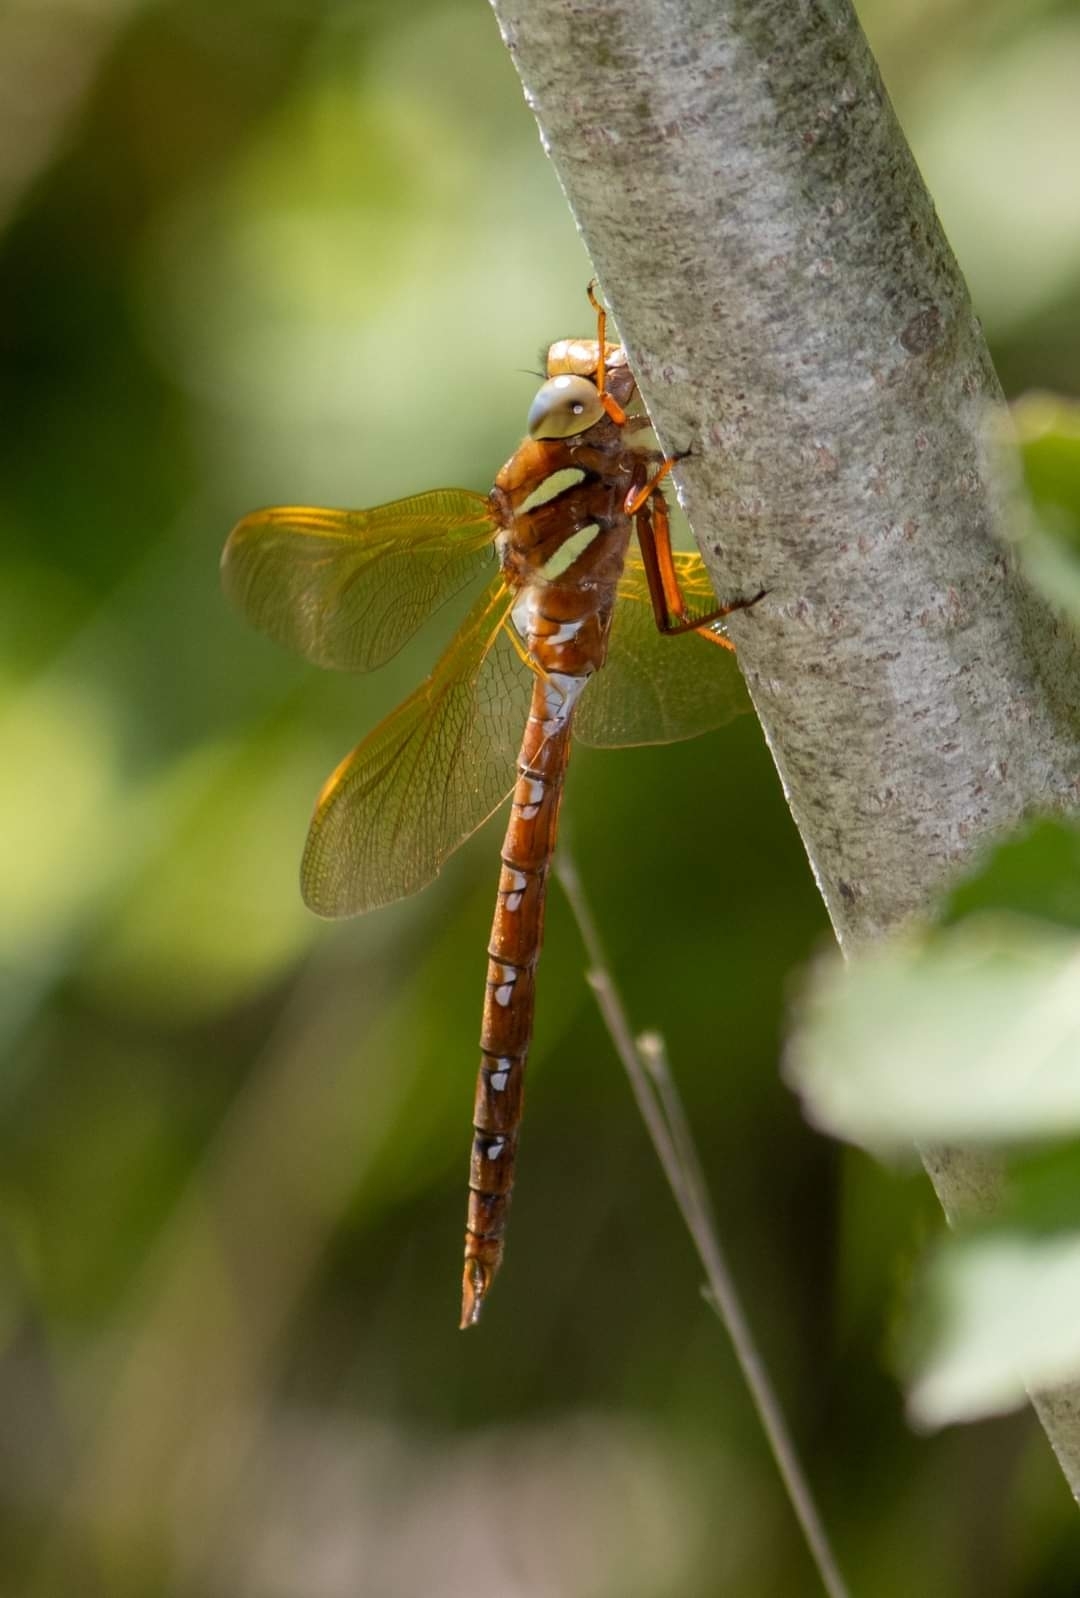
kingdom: Animalia
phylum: Arthropoda
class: Insecta
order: Odonata
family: Aeshnidae
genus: Aeshna
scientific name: Aeshna grandis
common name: Brown hawker
